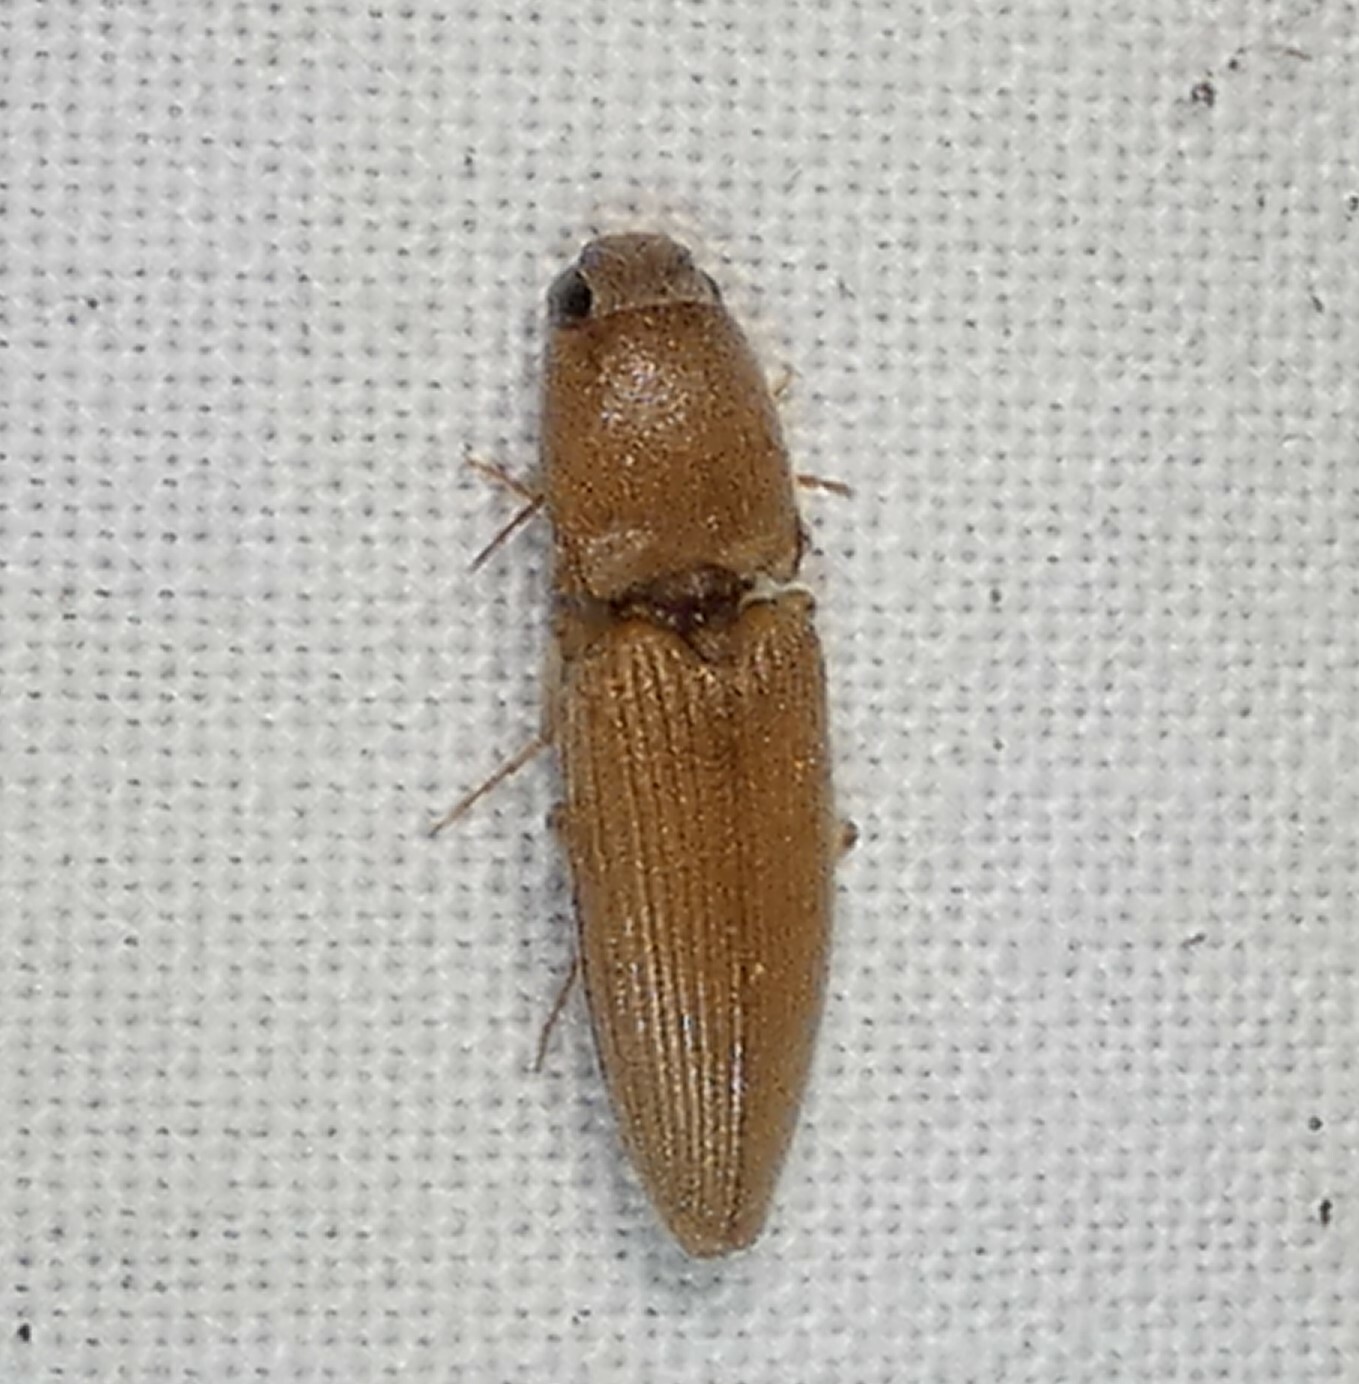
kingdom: Animalia
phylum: Arthropoda
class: Insecta
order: Coleoptera
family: Elateridae
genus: Monocrepidius
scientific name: Monocrepidius scissus
